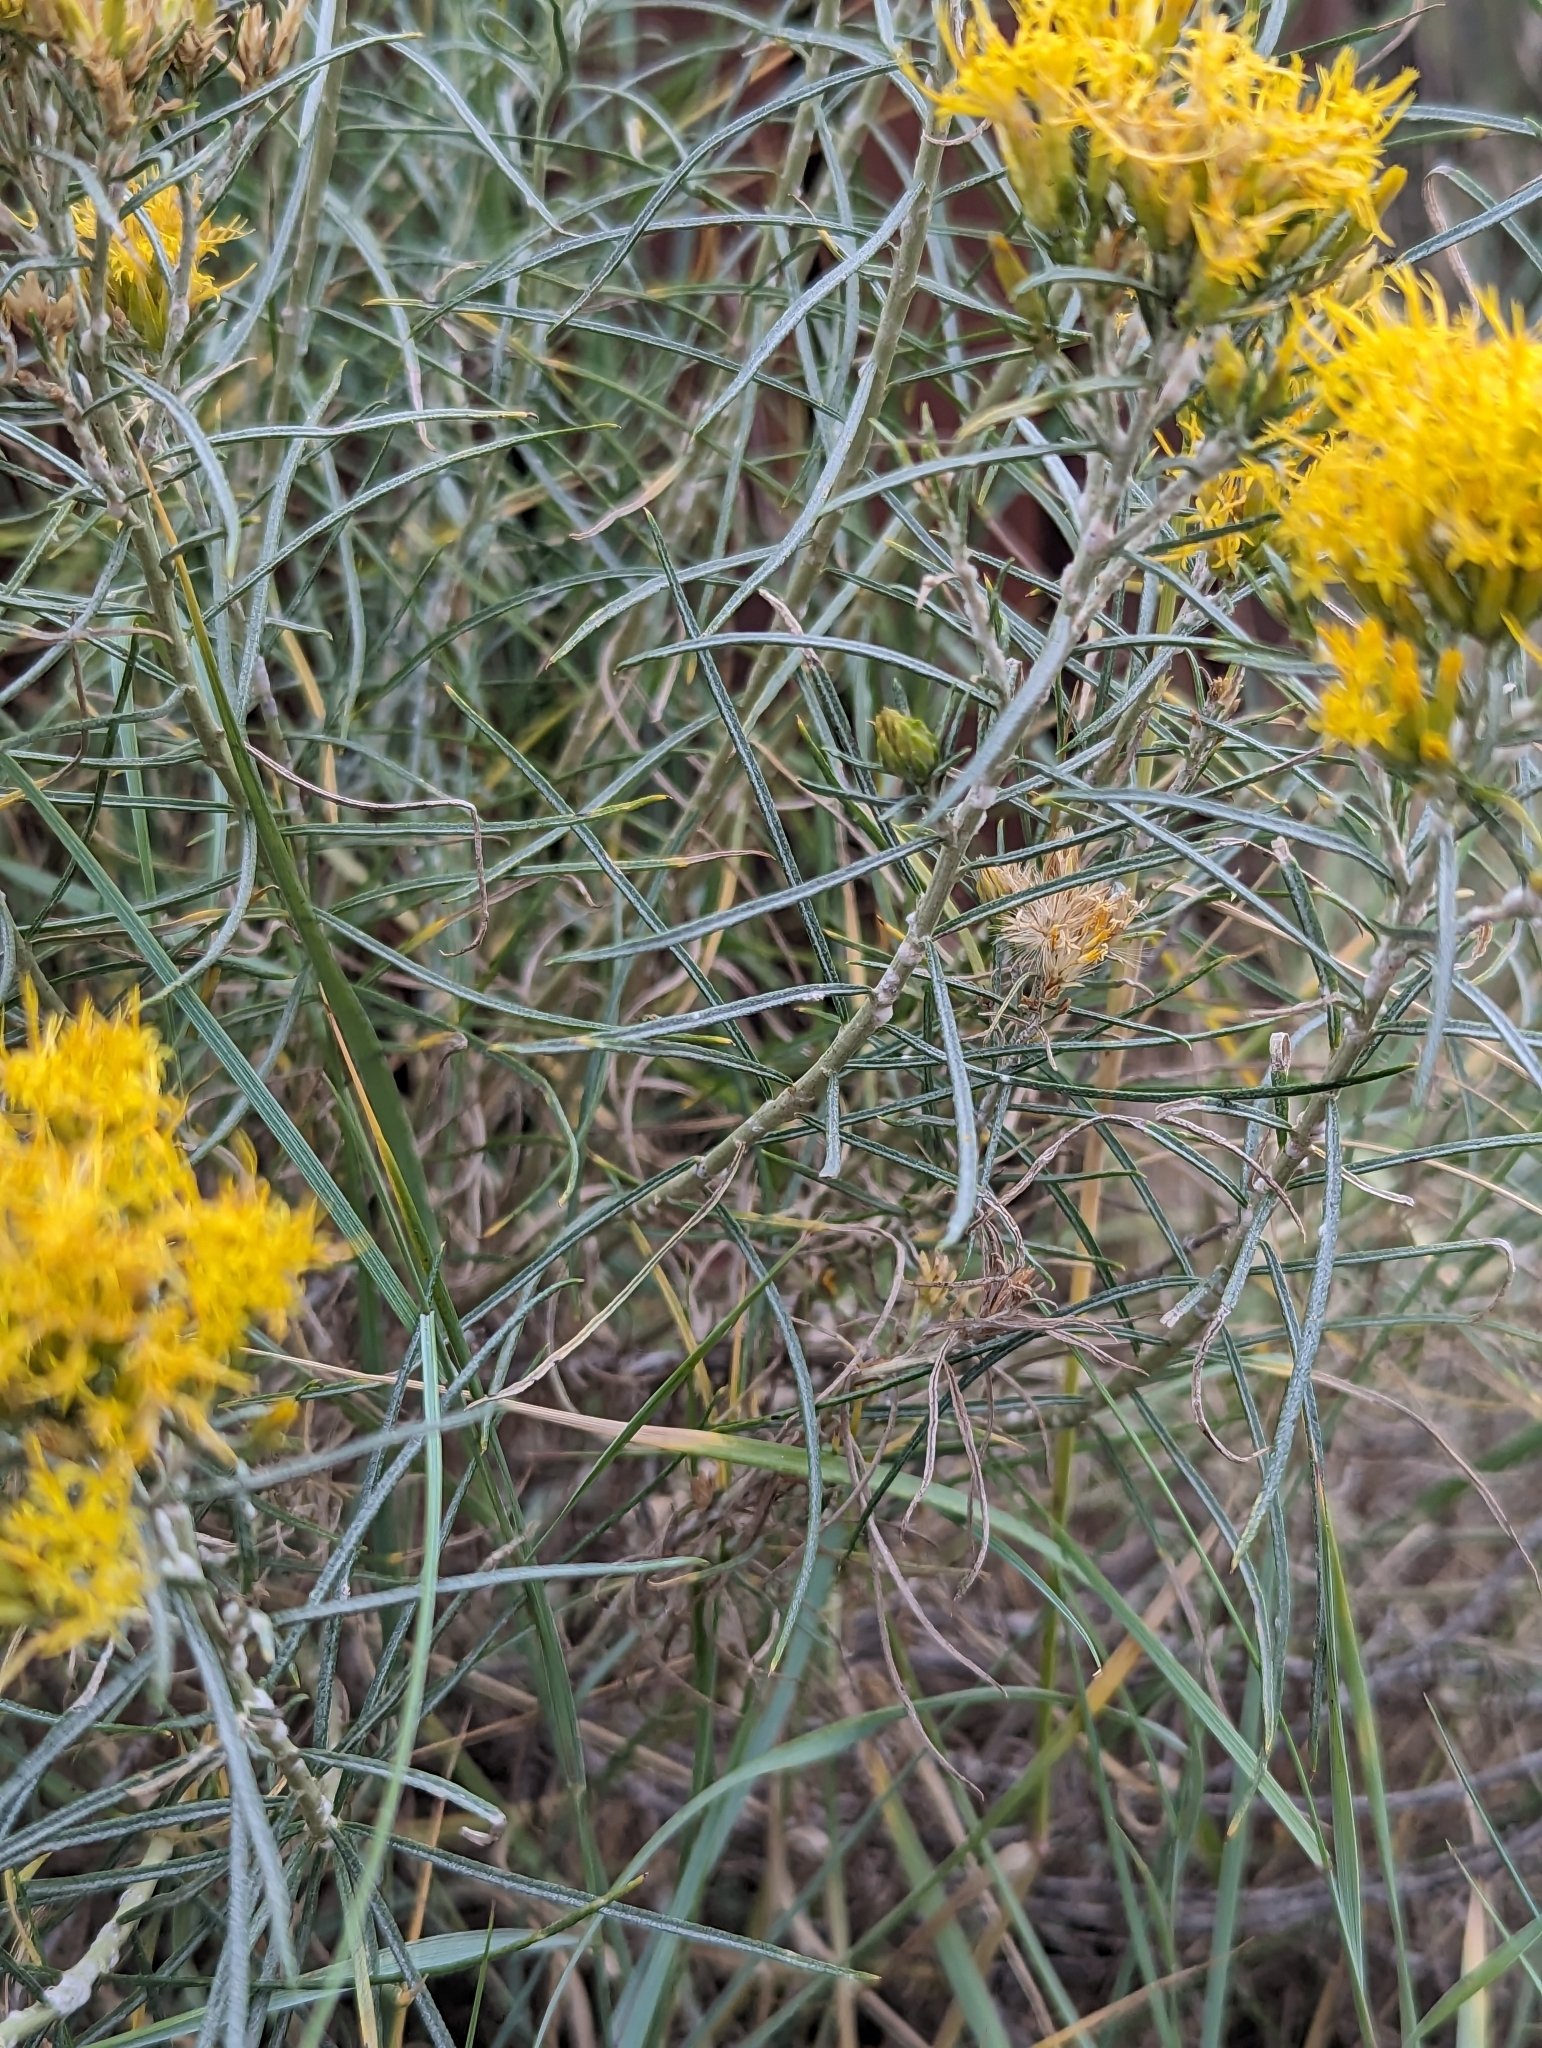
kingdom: Plantae
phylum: Tracheophyta
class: Magnoliopsida
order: Asterales
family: Asteraceae
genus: Chrysothamnus
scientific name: Chrysothamnus viscidiflorus
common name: Yellow rabbitbrush
